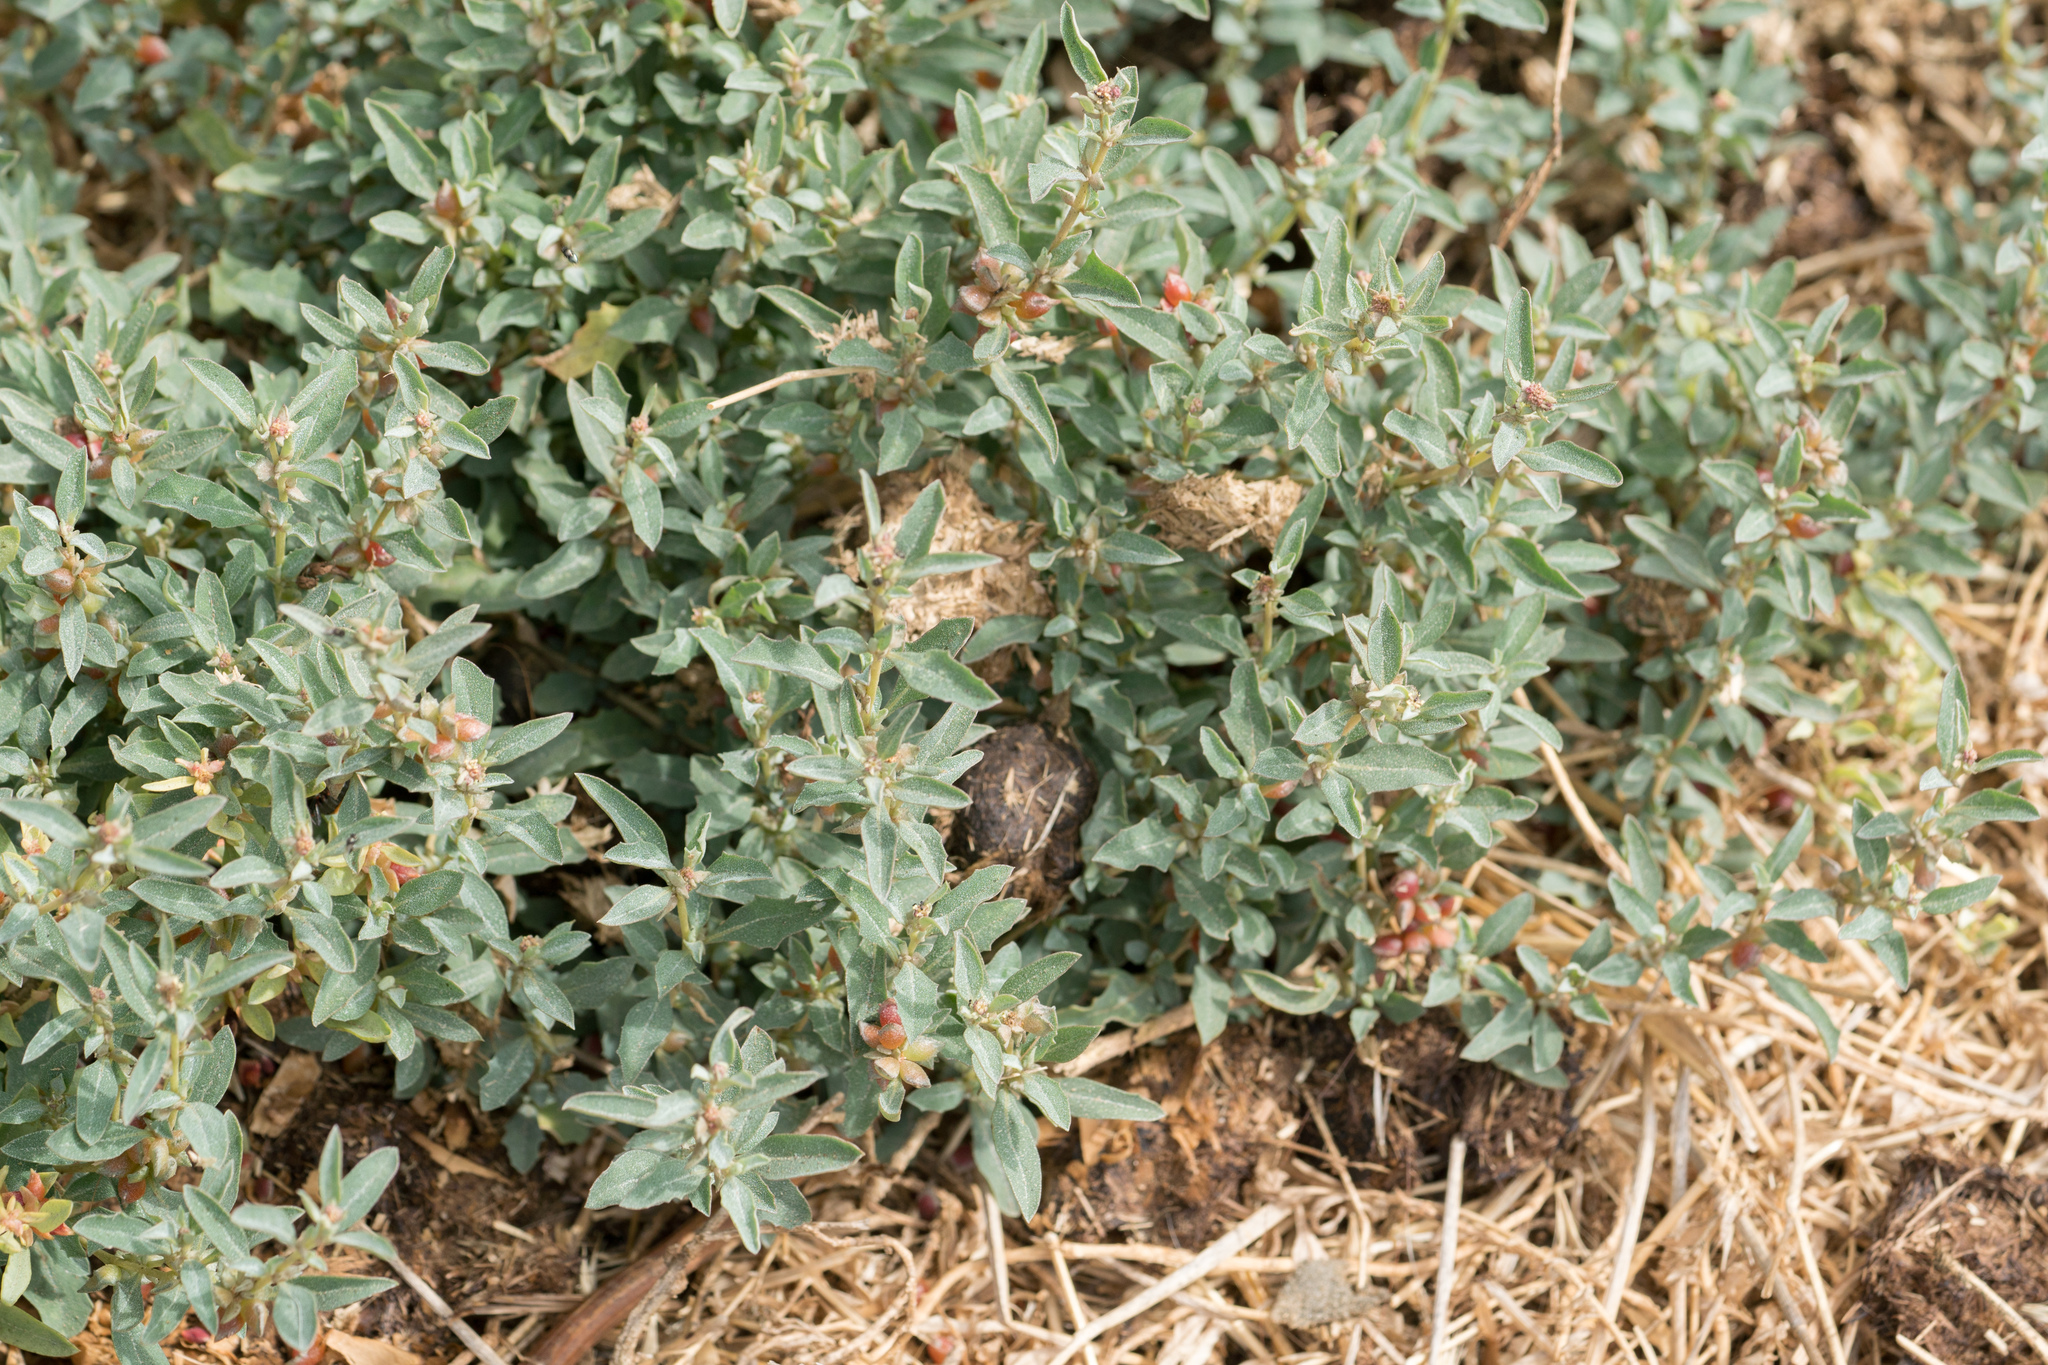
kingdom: Plantae
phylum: Tracheophyta
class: Magnoliopsida
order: Caryophyllales
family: Amaranthaceae
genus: Atriplex
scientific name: Atriplex semibaccata
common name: Australian saltbush
